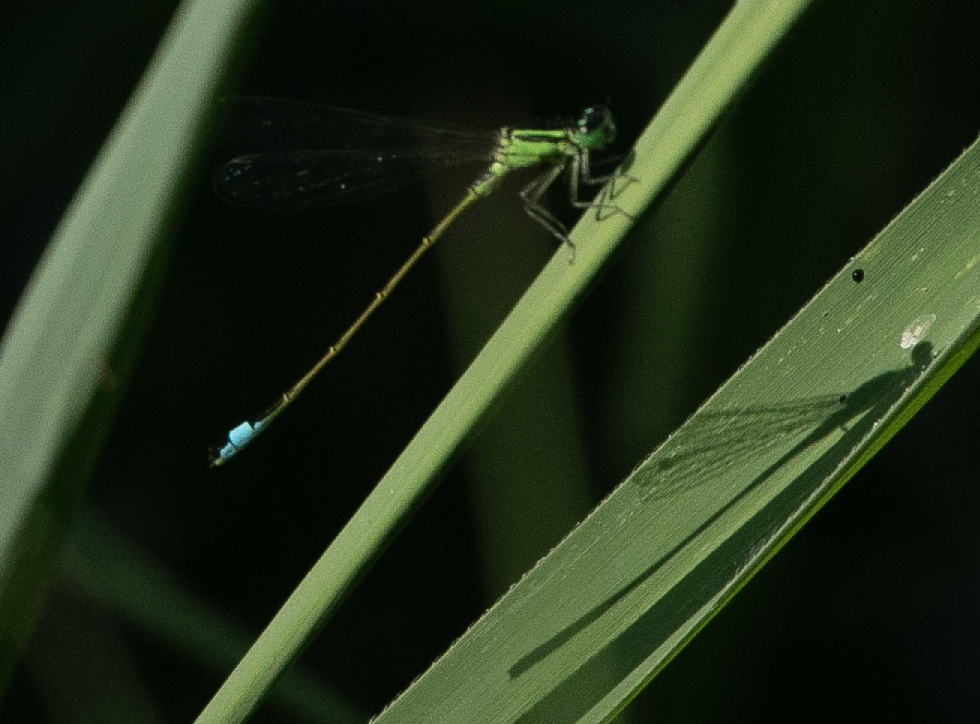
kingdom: Animalia
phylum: Arthropoda
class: Insecta
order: Odonata
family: Coenagrionidae
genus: Ischnura
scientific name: Ischnura elegans
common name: Blue-tailed damselfly
